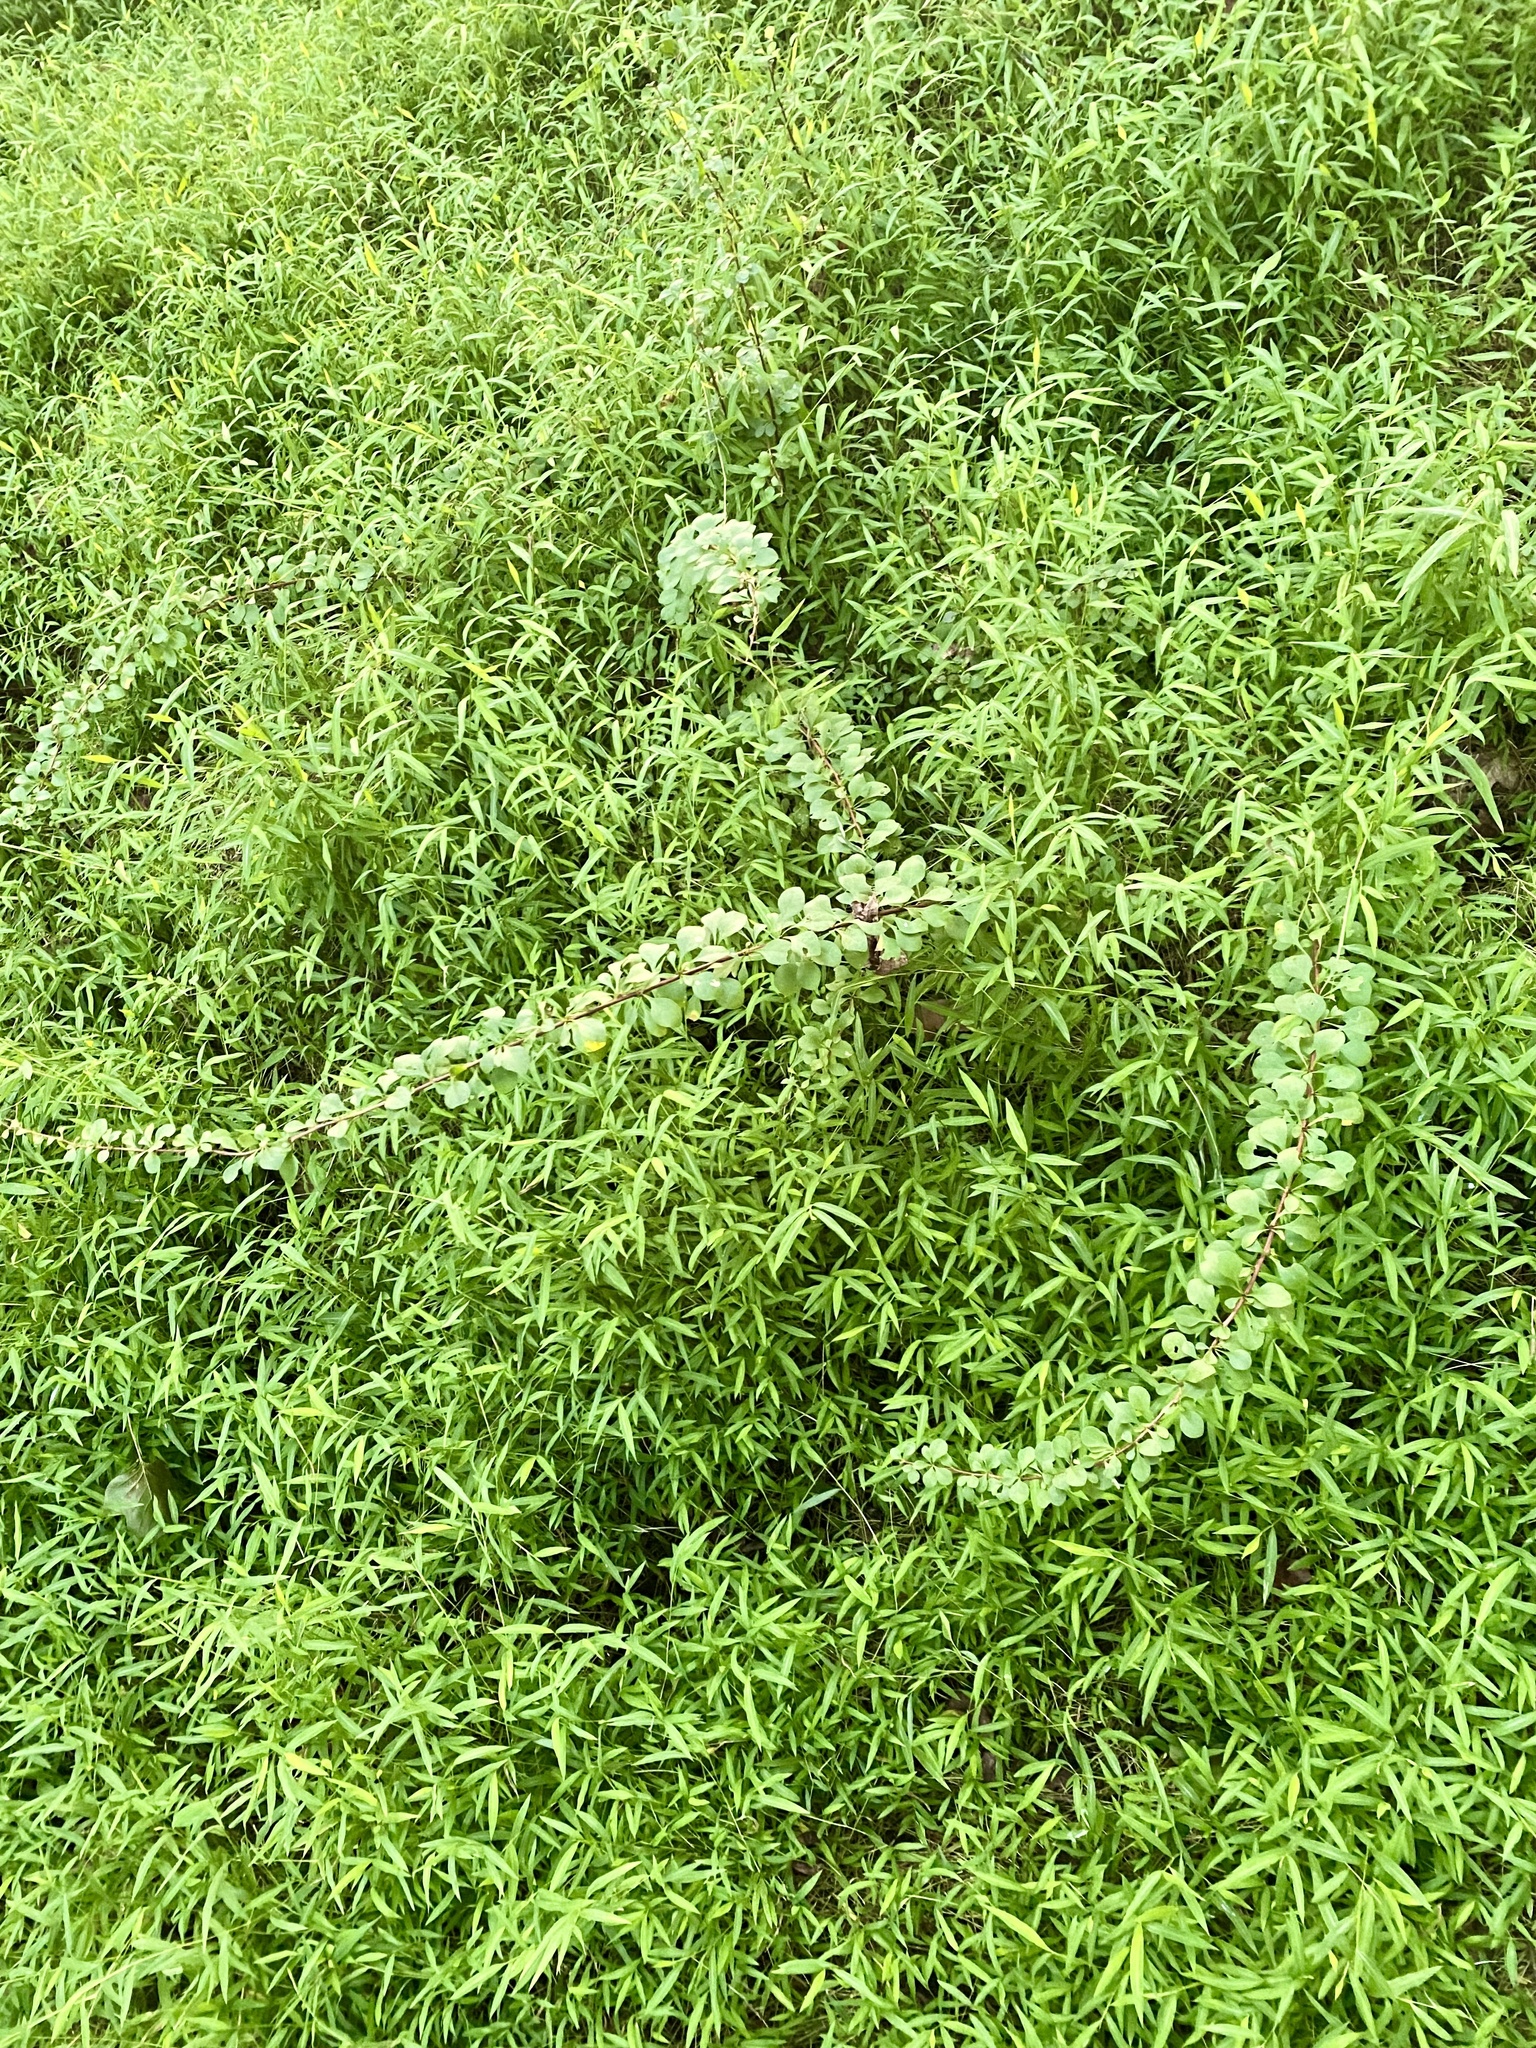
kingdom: Plantae
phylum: Tracheophyta
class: Magnoliopsida
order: Ranunculales
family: Berberidaceae
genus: Berberis
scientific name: Berberis thunbergii
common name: Japanese barberry
